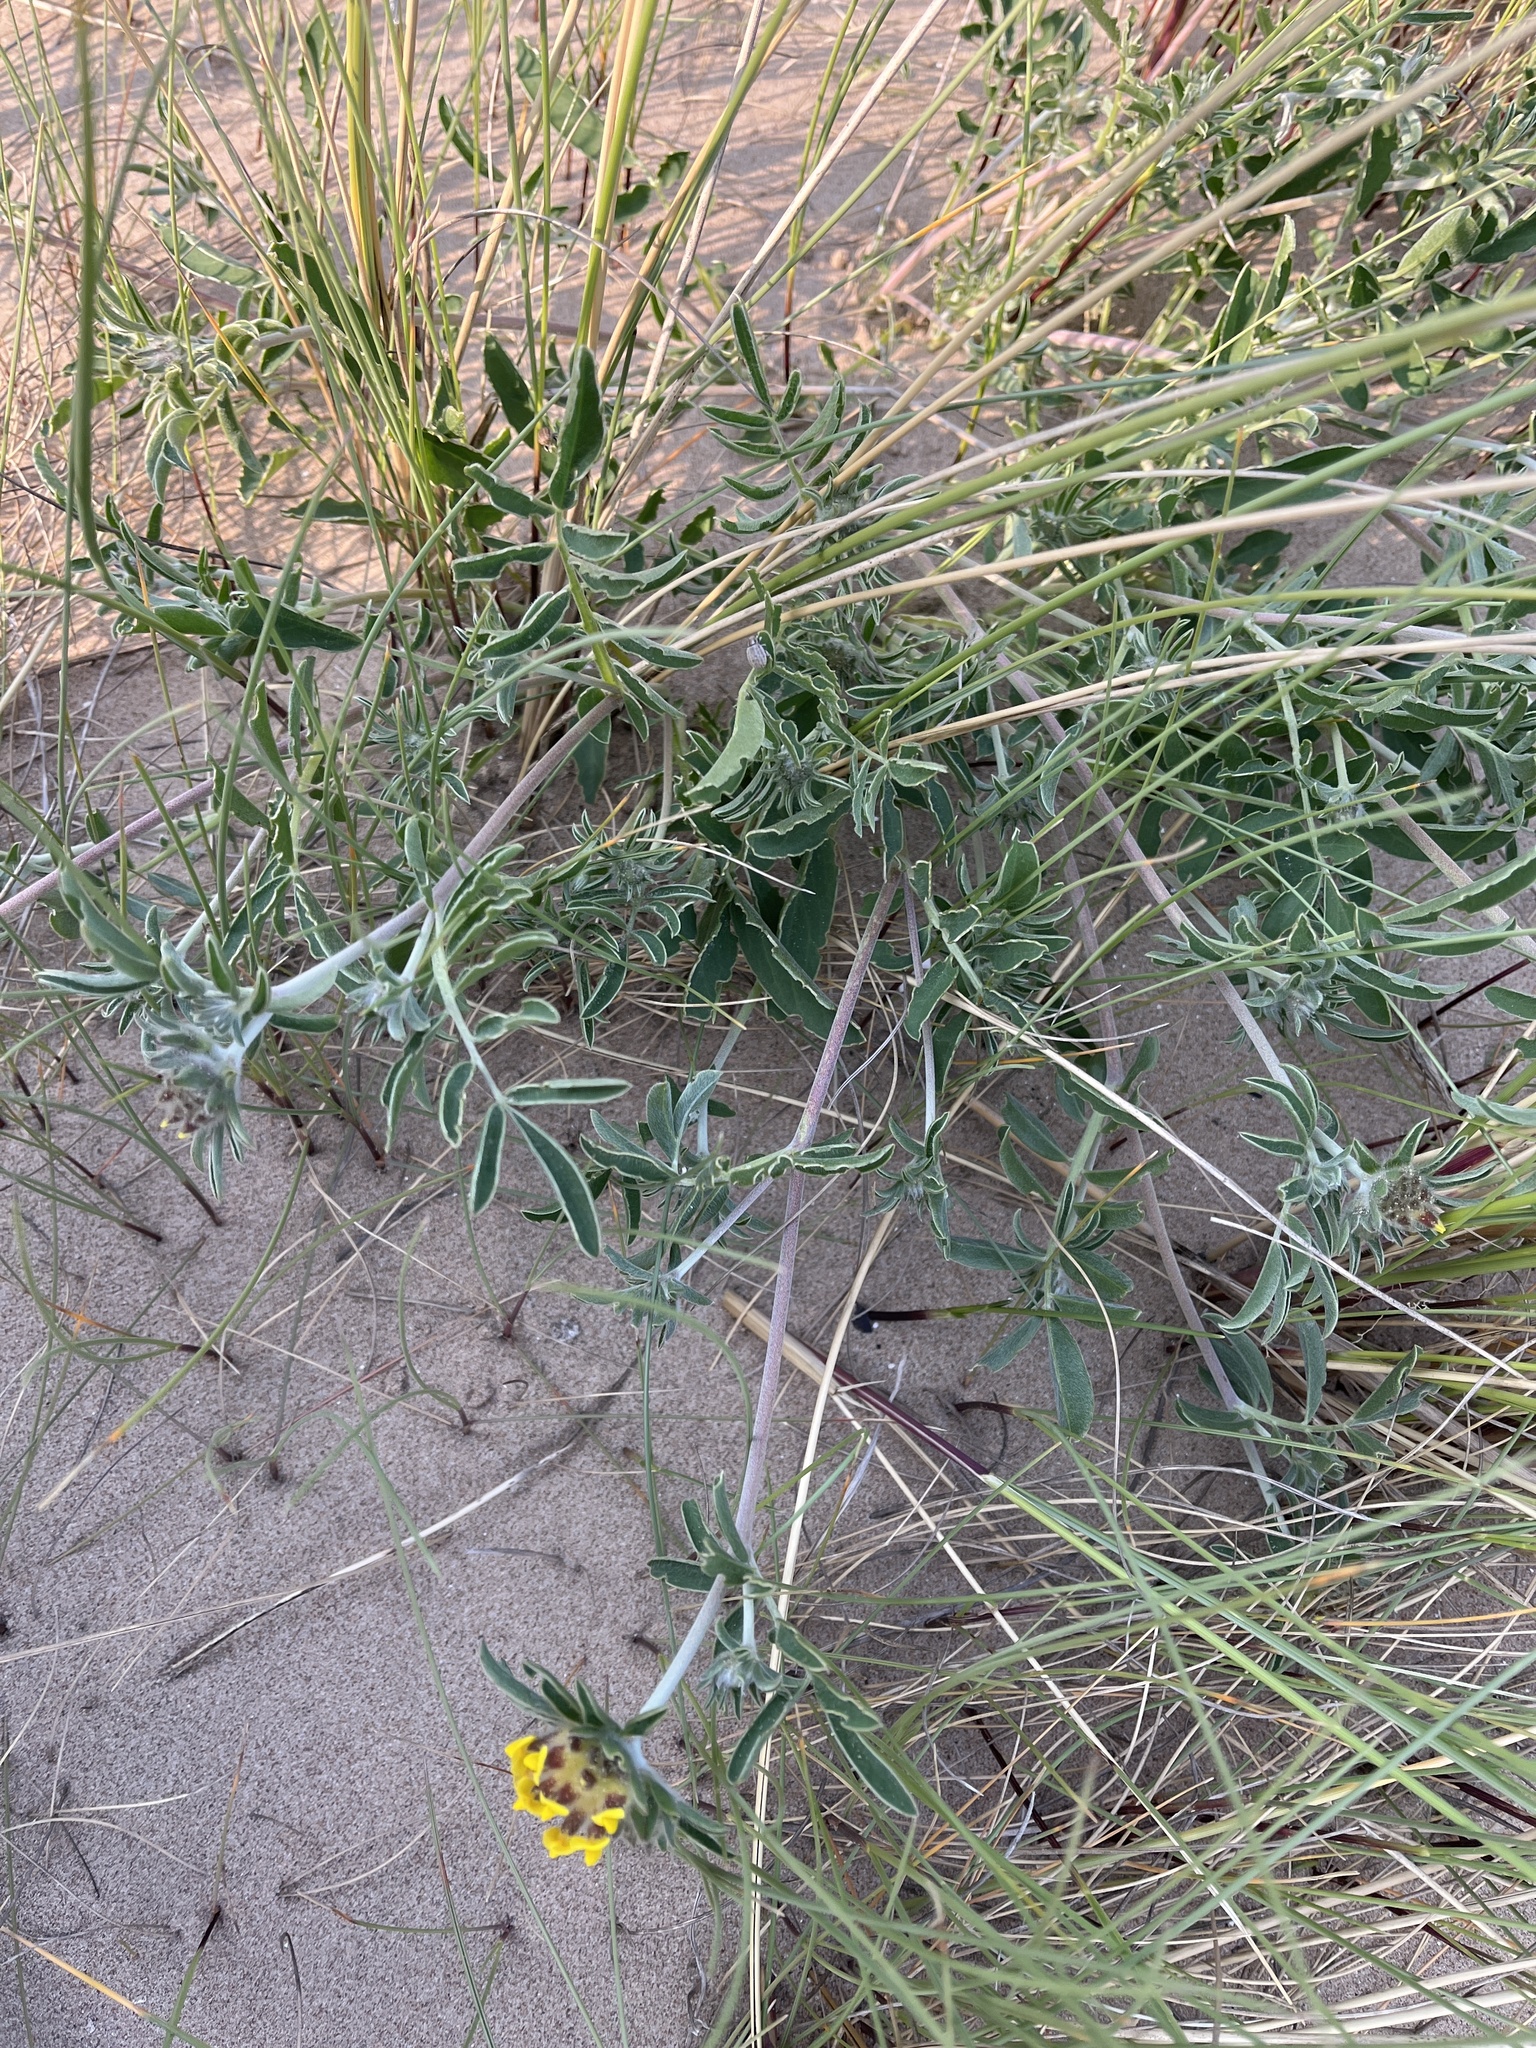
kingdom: Plantae
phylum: Tracheophyta
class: Magnoliopsida
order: Fabales
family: Fabaceae
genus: Anthyllis
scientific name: Anthyllis vulneraria
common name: Kidney vetch
